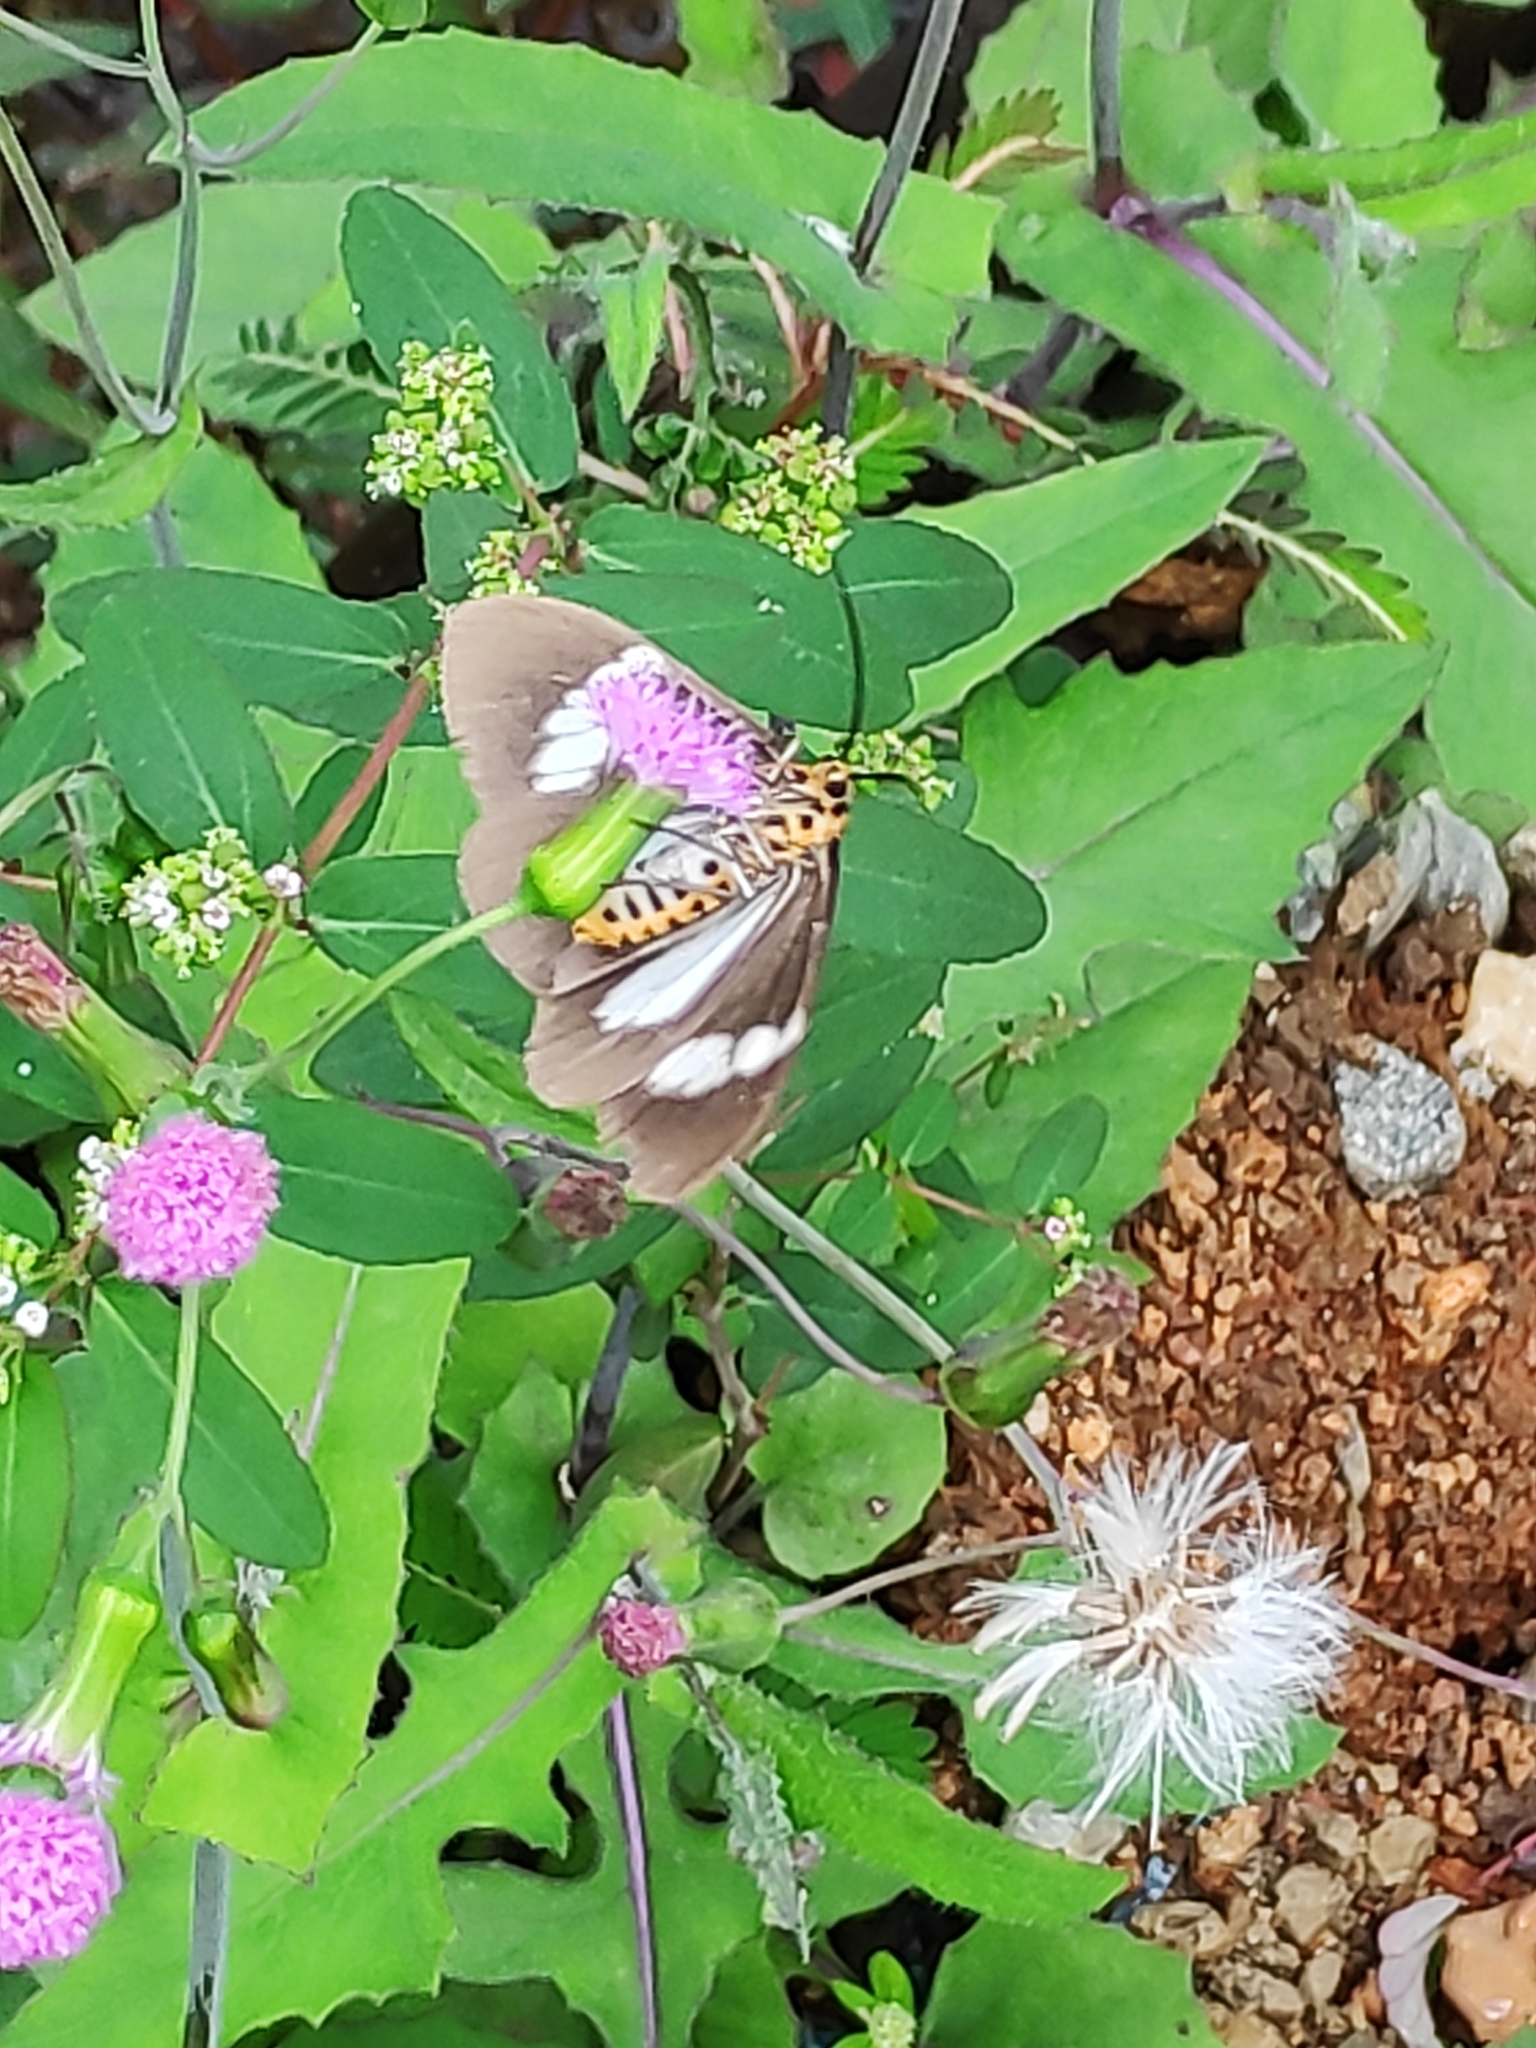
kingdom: Animalia
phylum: Arthropoda
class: Insecta
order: Lepidoptera
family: Erebidae
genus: Nyctemera
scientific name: Nyctemera baulus
